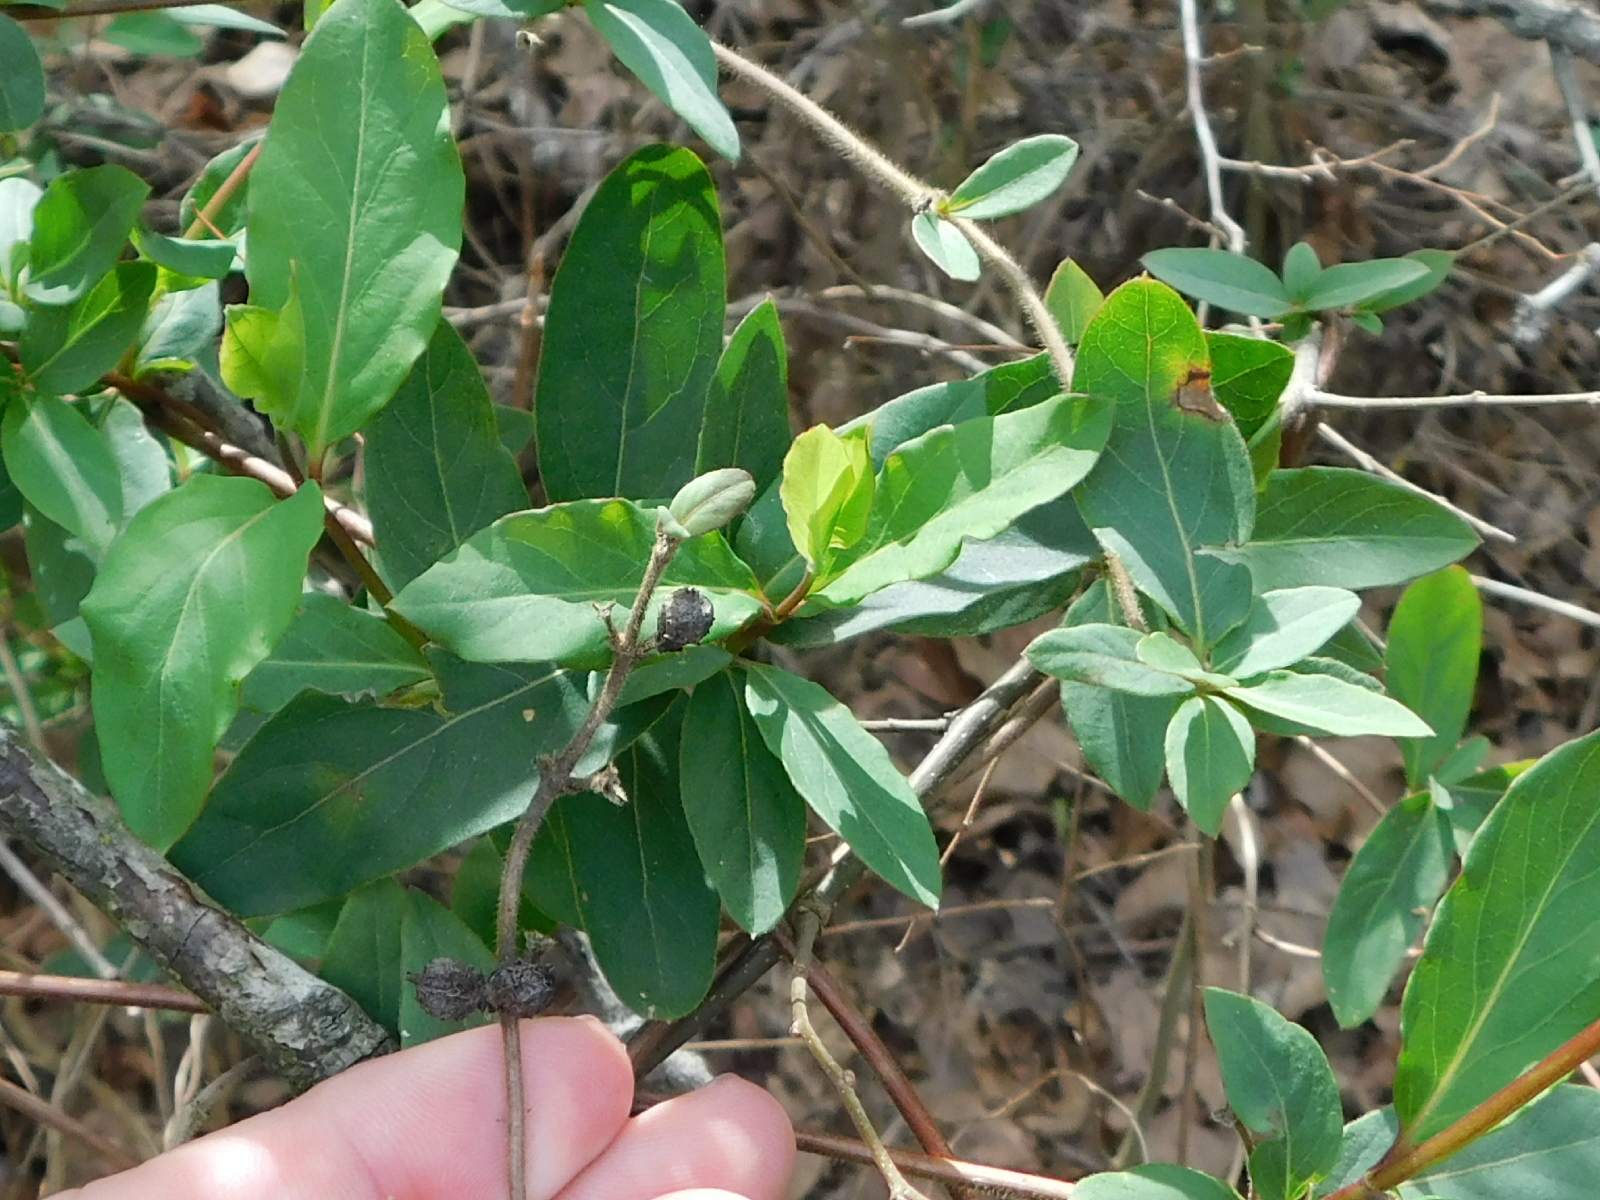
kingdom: Plantae
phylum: Tracheophyta
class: Magnoliopsida
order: Dipsacales
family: Caprifoliaceae
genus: Lonicera
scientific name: Lonicera japonica
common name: Japanese honeysuckle
